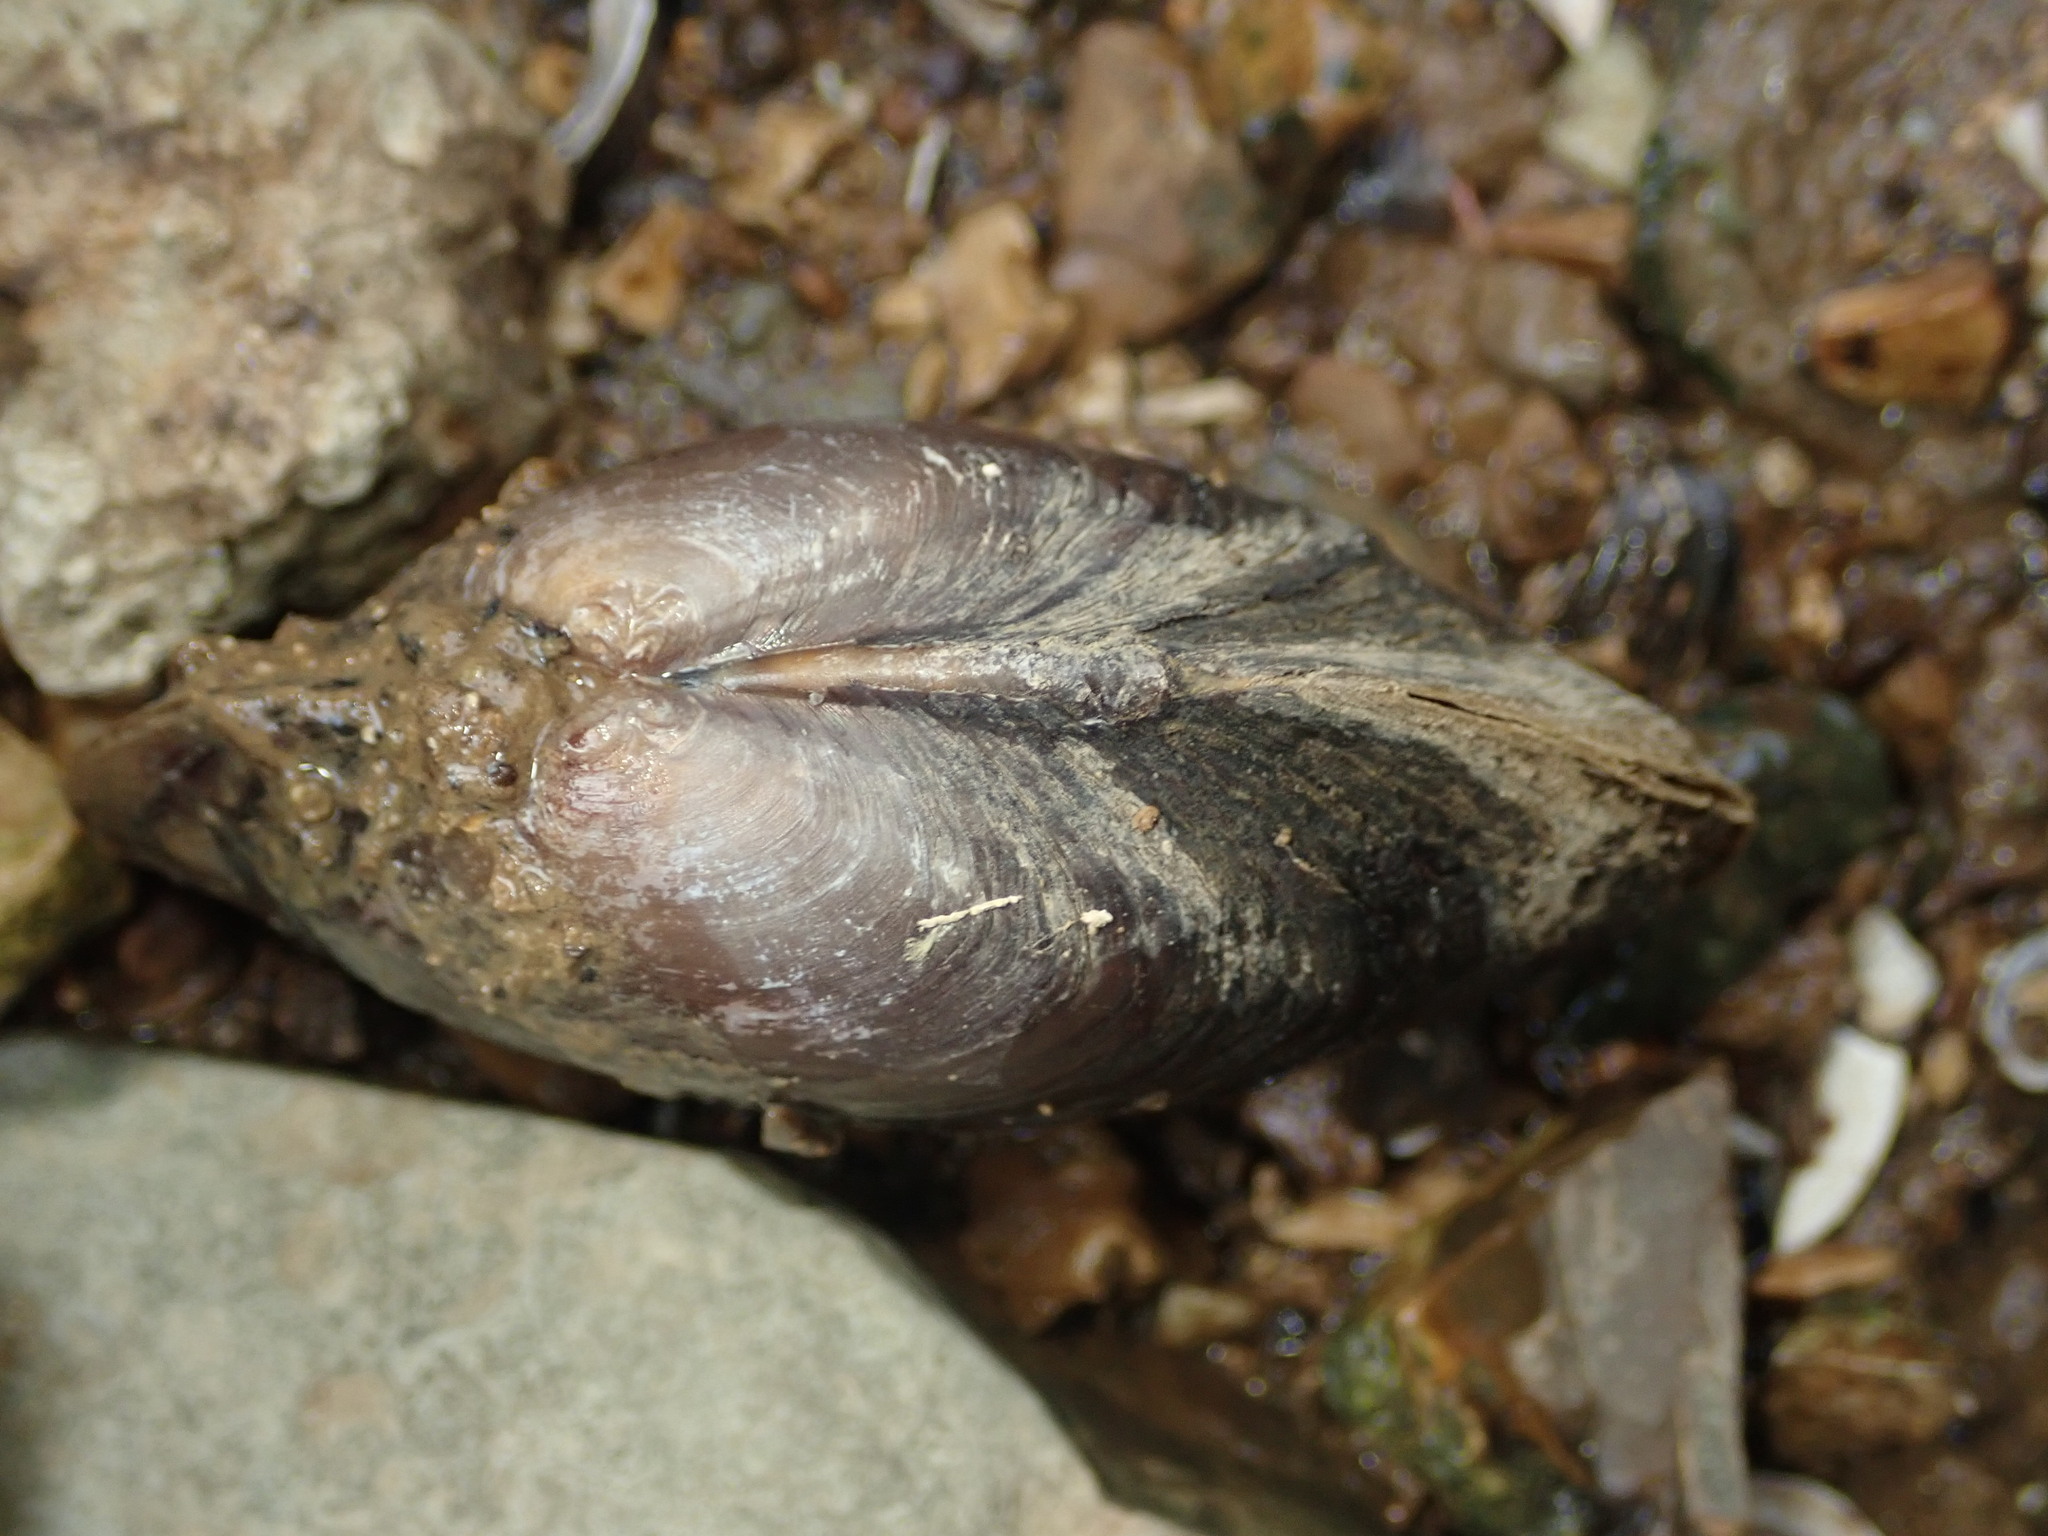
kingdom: Animalia
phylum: Mollusca
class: Bivalvia
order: Unionida
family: Unionidae
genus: Pyganodon
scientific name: Pyganodon grandis
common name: Giant floater
